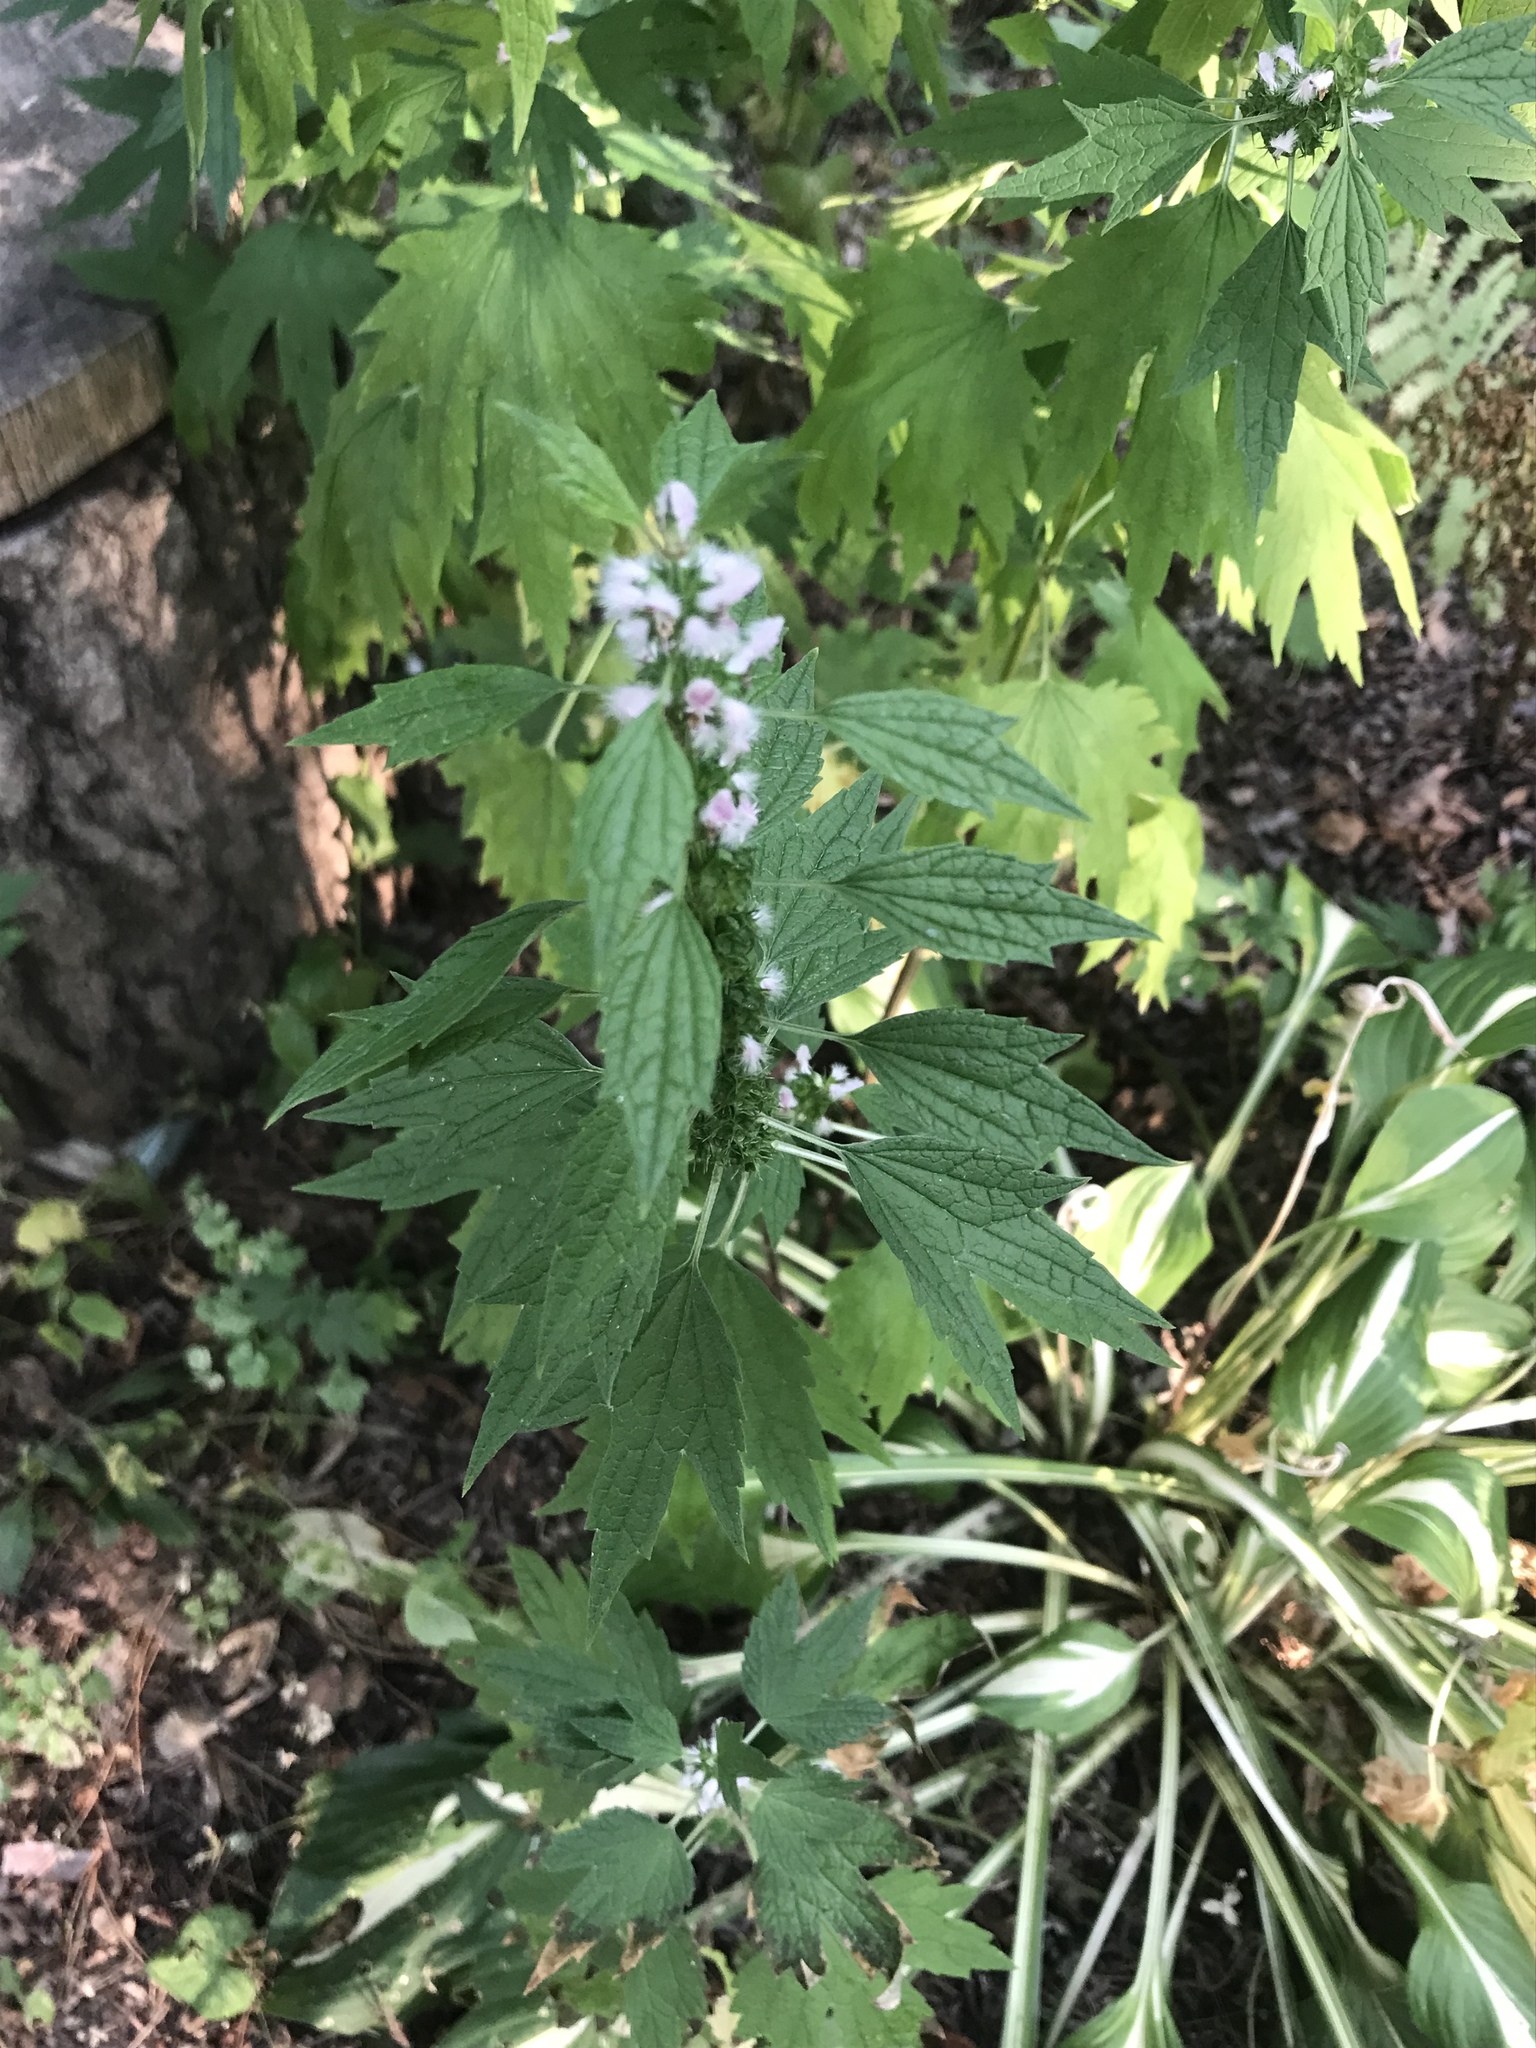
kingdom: Plantae
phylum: Tracheophyta
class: Magnoliopsida
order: Lamiales
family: Lamiaceae
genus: Leonurus
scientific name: Leonurus cardiaca
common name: Motherwort
